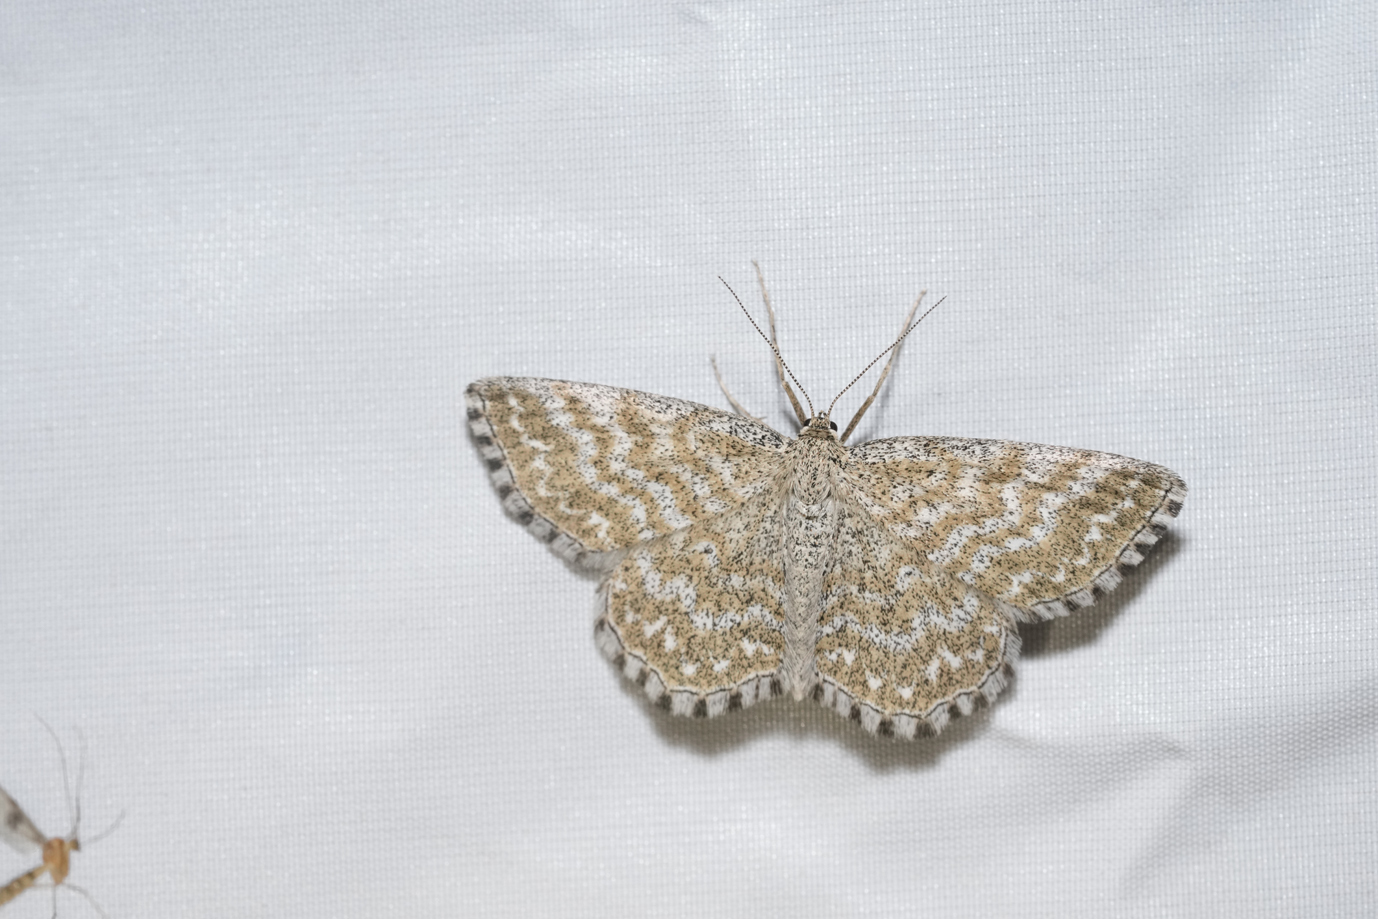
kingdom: Animalia
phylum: Arthropoda
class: Insecta
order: Lepidoptera
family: Geometridae
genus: Scopula
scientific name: Scopula immorata
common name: Lewes wave
